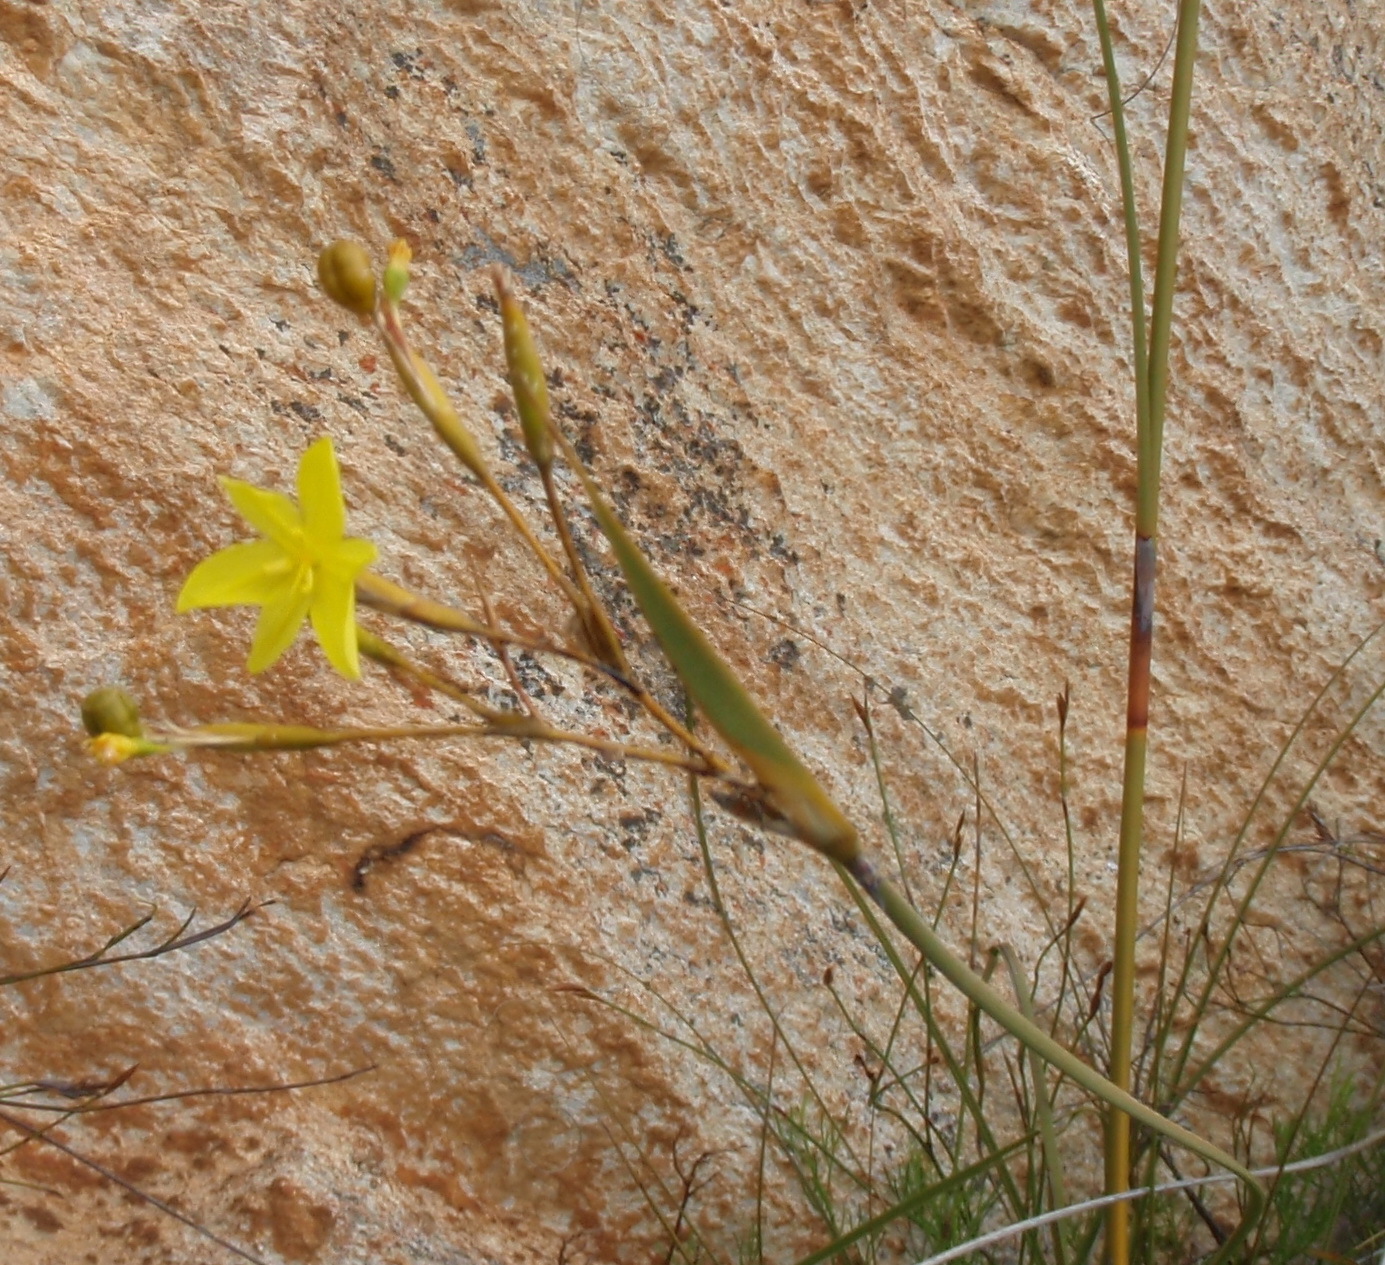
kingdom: Plantae
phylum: Tracheophyta
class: Liliopsida
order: Asparagales
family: Iridaceae
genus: Bobartia
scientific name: Bobartia paniculata
